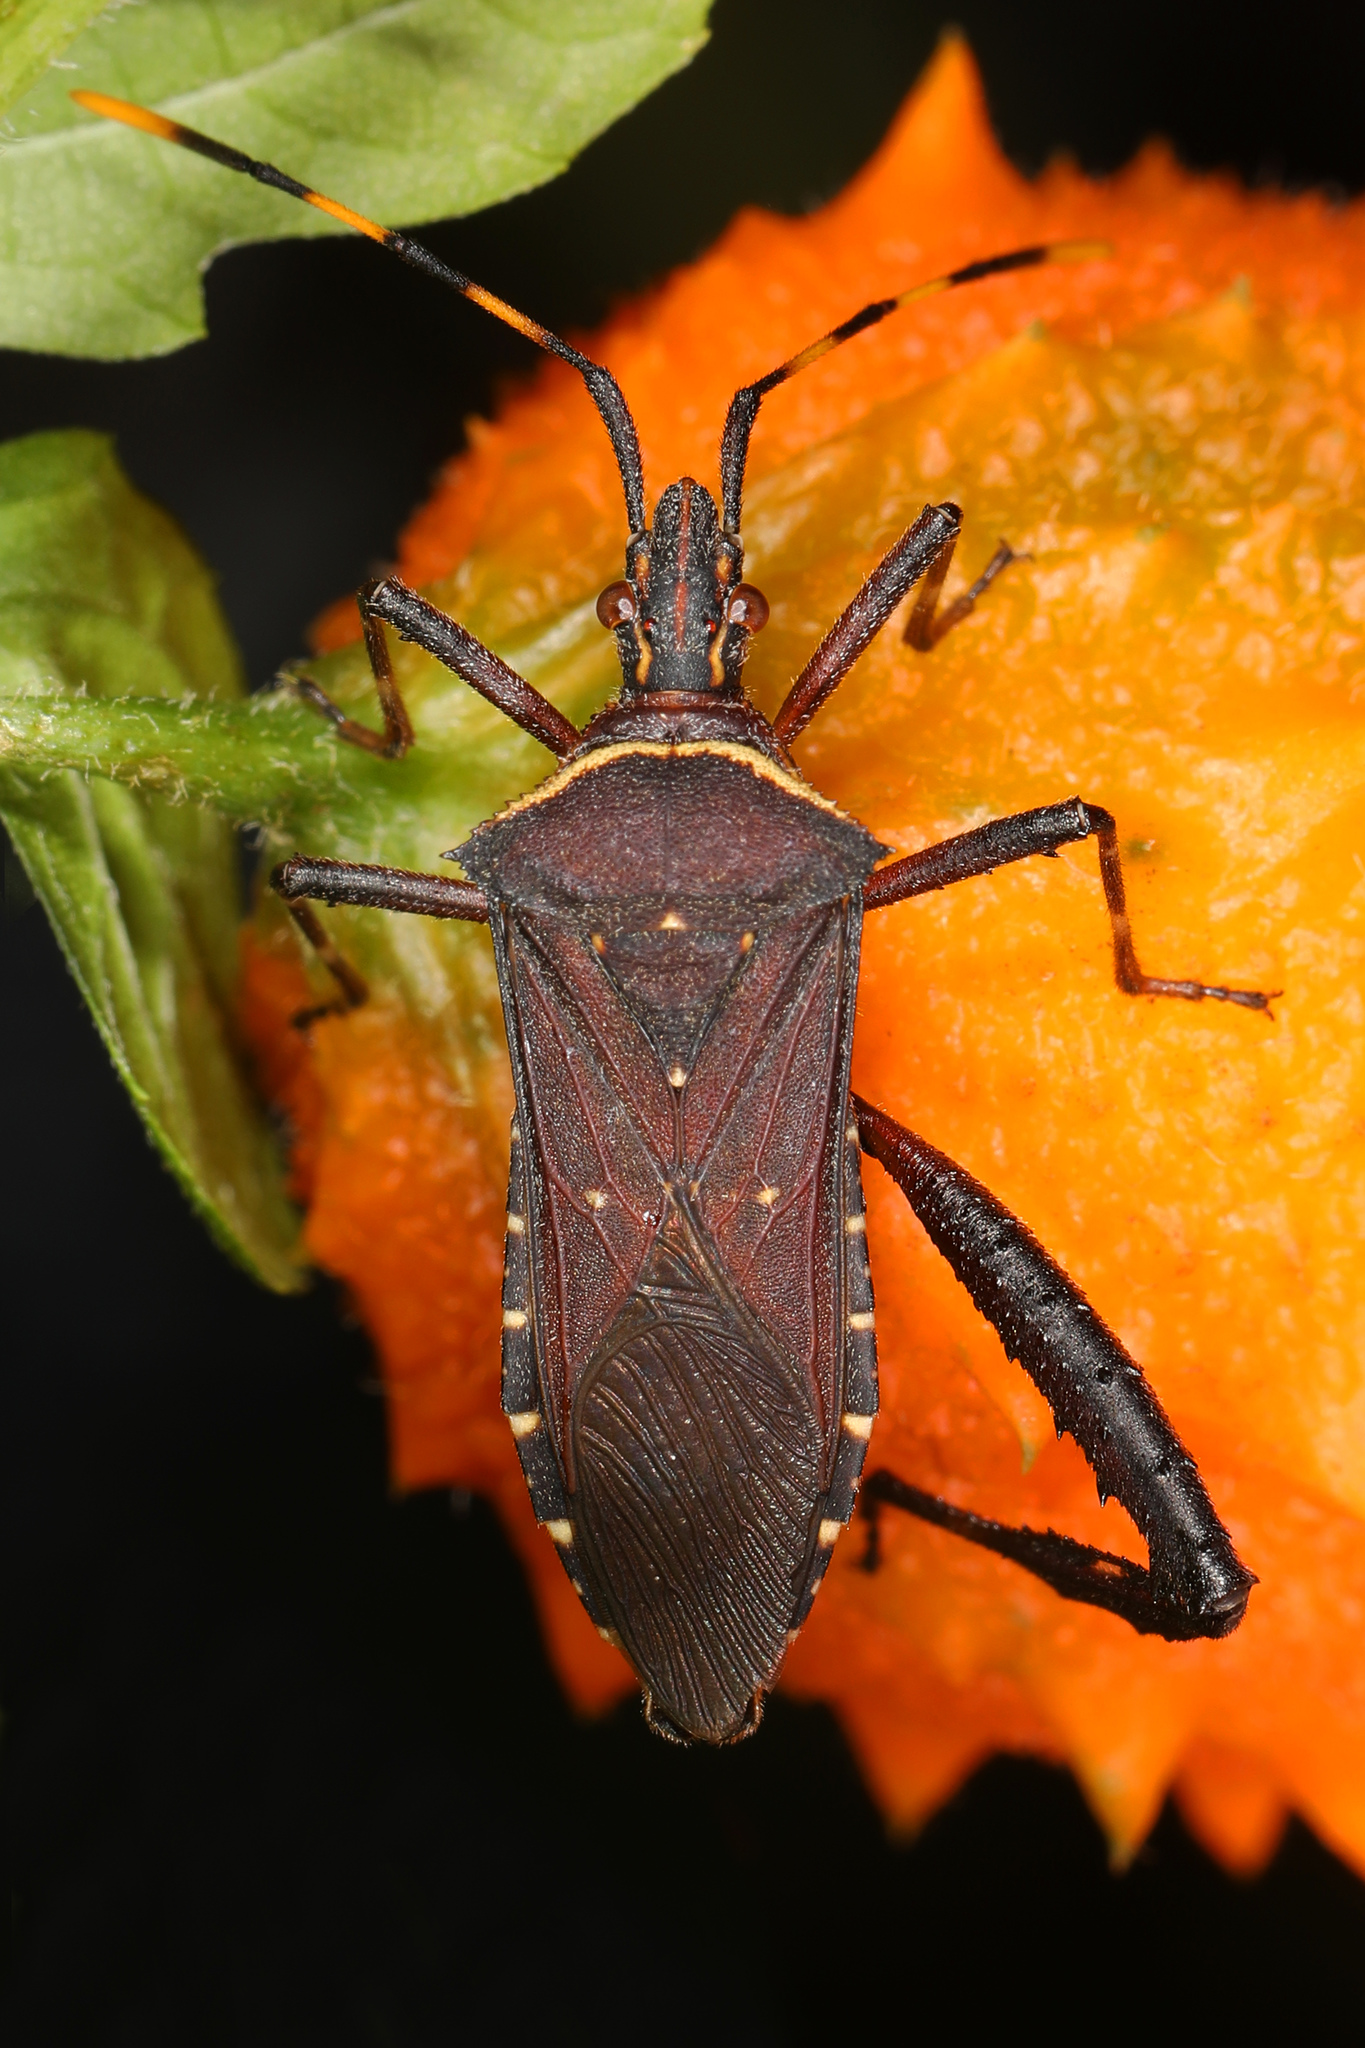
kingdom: Animalia
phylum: Arthropoda
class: Insecta
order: Hemiptera
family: Coreidae
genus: Leptoglossus
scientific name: Leptoglossus gonagra
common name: Citron bug
